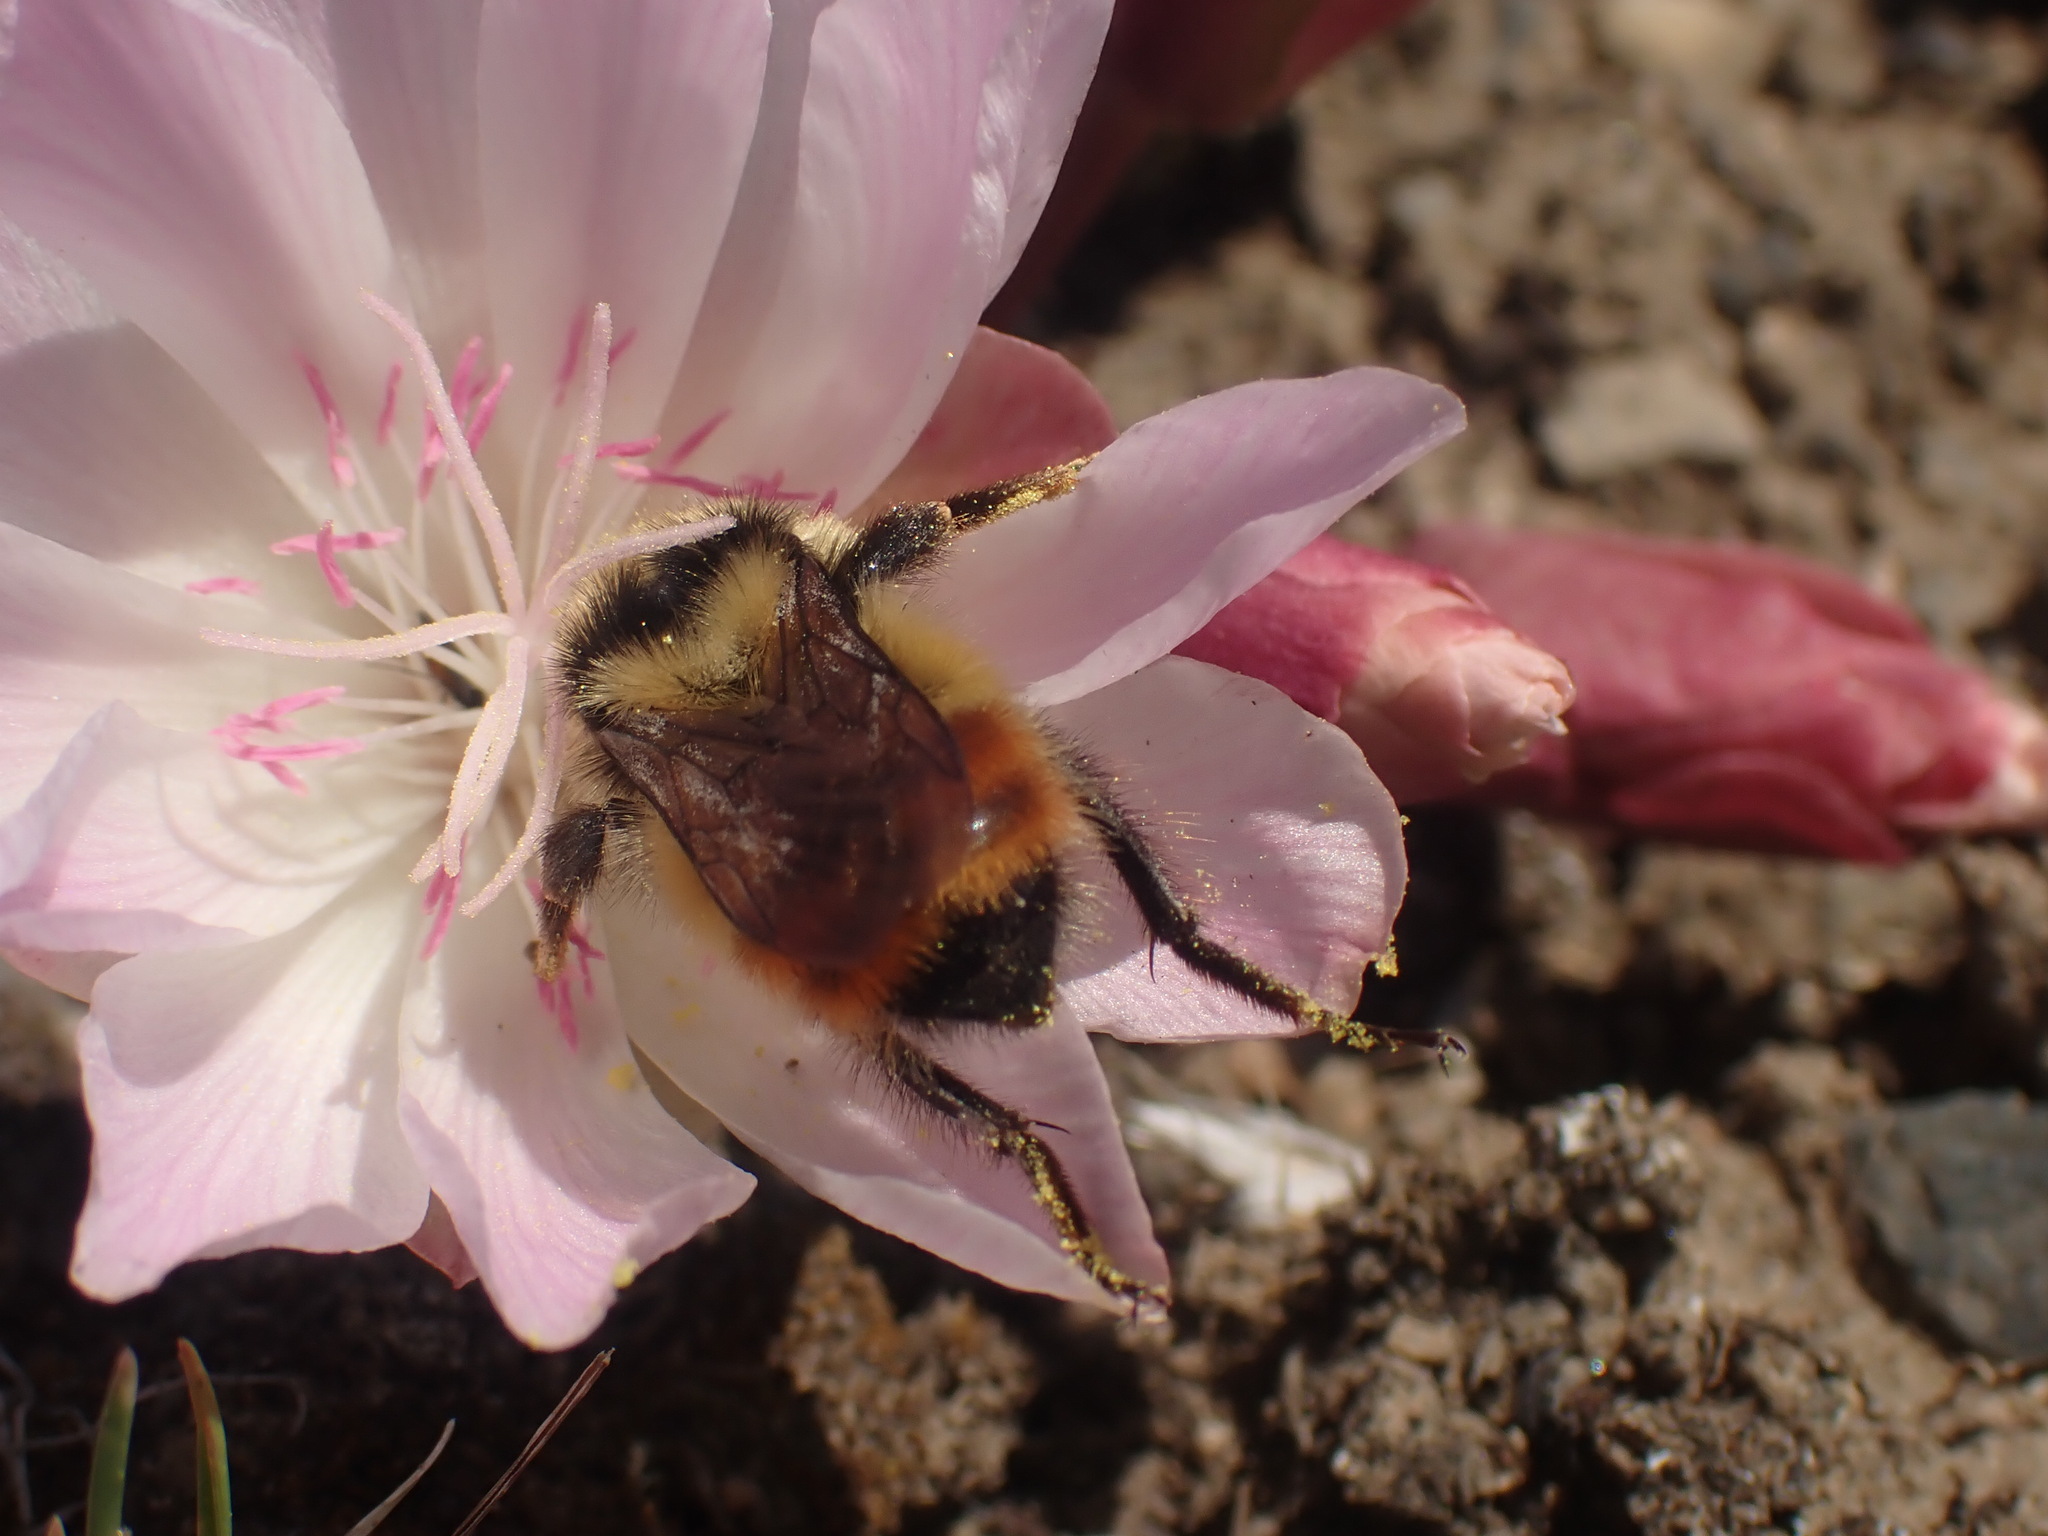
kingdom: Animalia
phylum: Arthropoda
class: Insecta
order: Hymenoptera
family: Apidae
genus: Bombus
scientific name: Bombus centralis
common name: Central bumble bee
